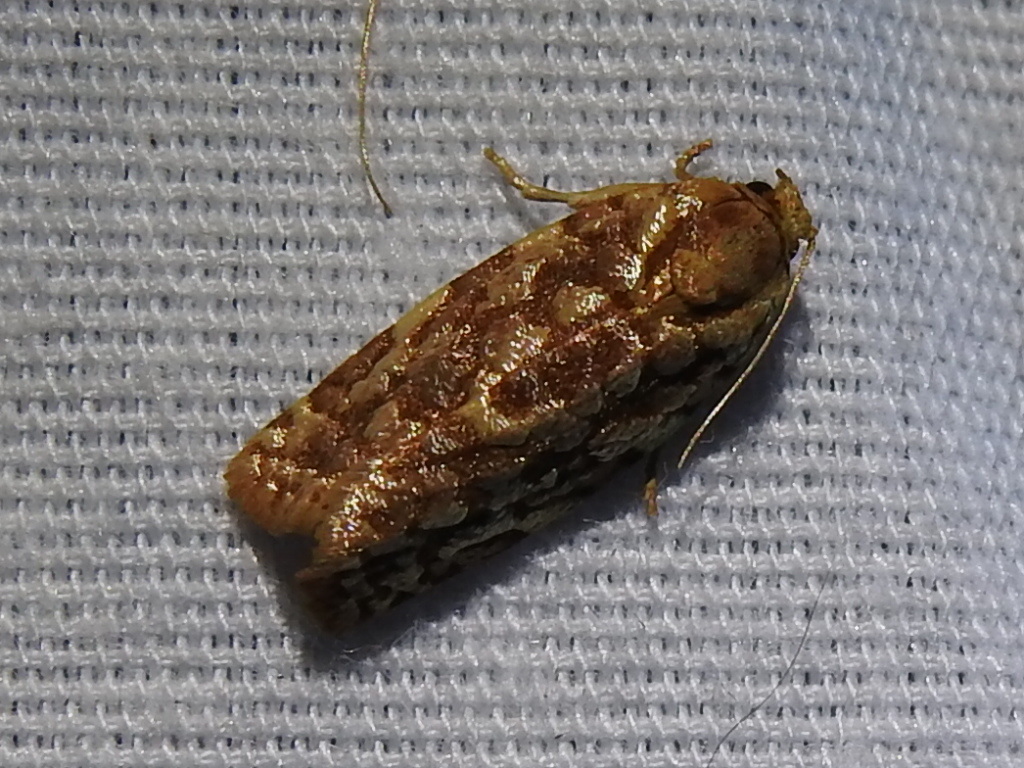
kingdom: Animalia
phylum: Arthropoda
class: Insecta
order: Lepidoptera
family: Tortricidae
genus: Choristoneura
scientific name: Choristoneura houstonana
